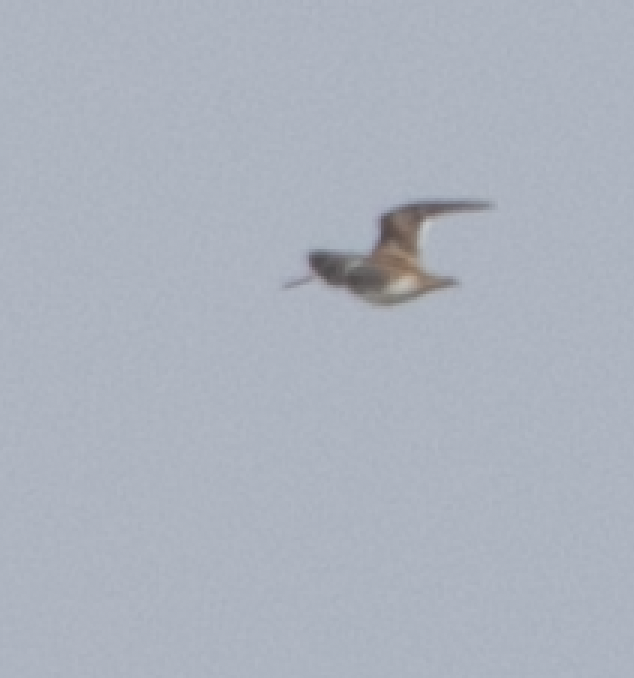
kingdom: Animalia
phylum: Chordata
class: Aves
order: Charadriiformes
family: Scolopacidae
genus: Gallinago
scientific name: Gallinago gallinago
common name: Common snipe
